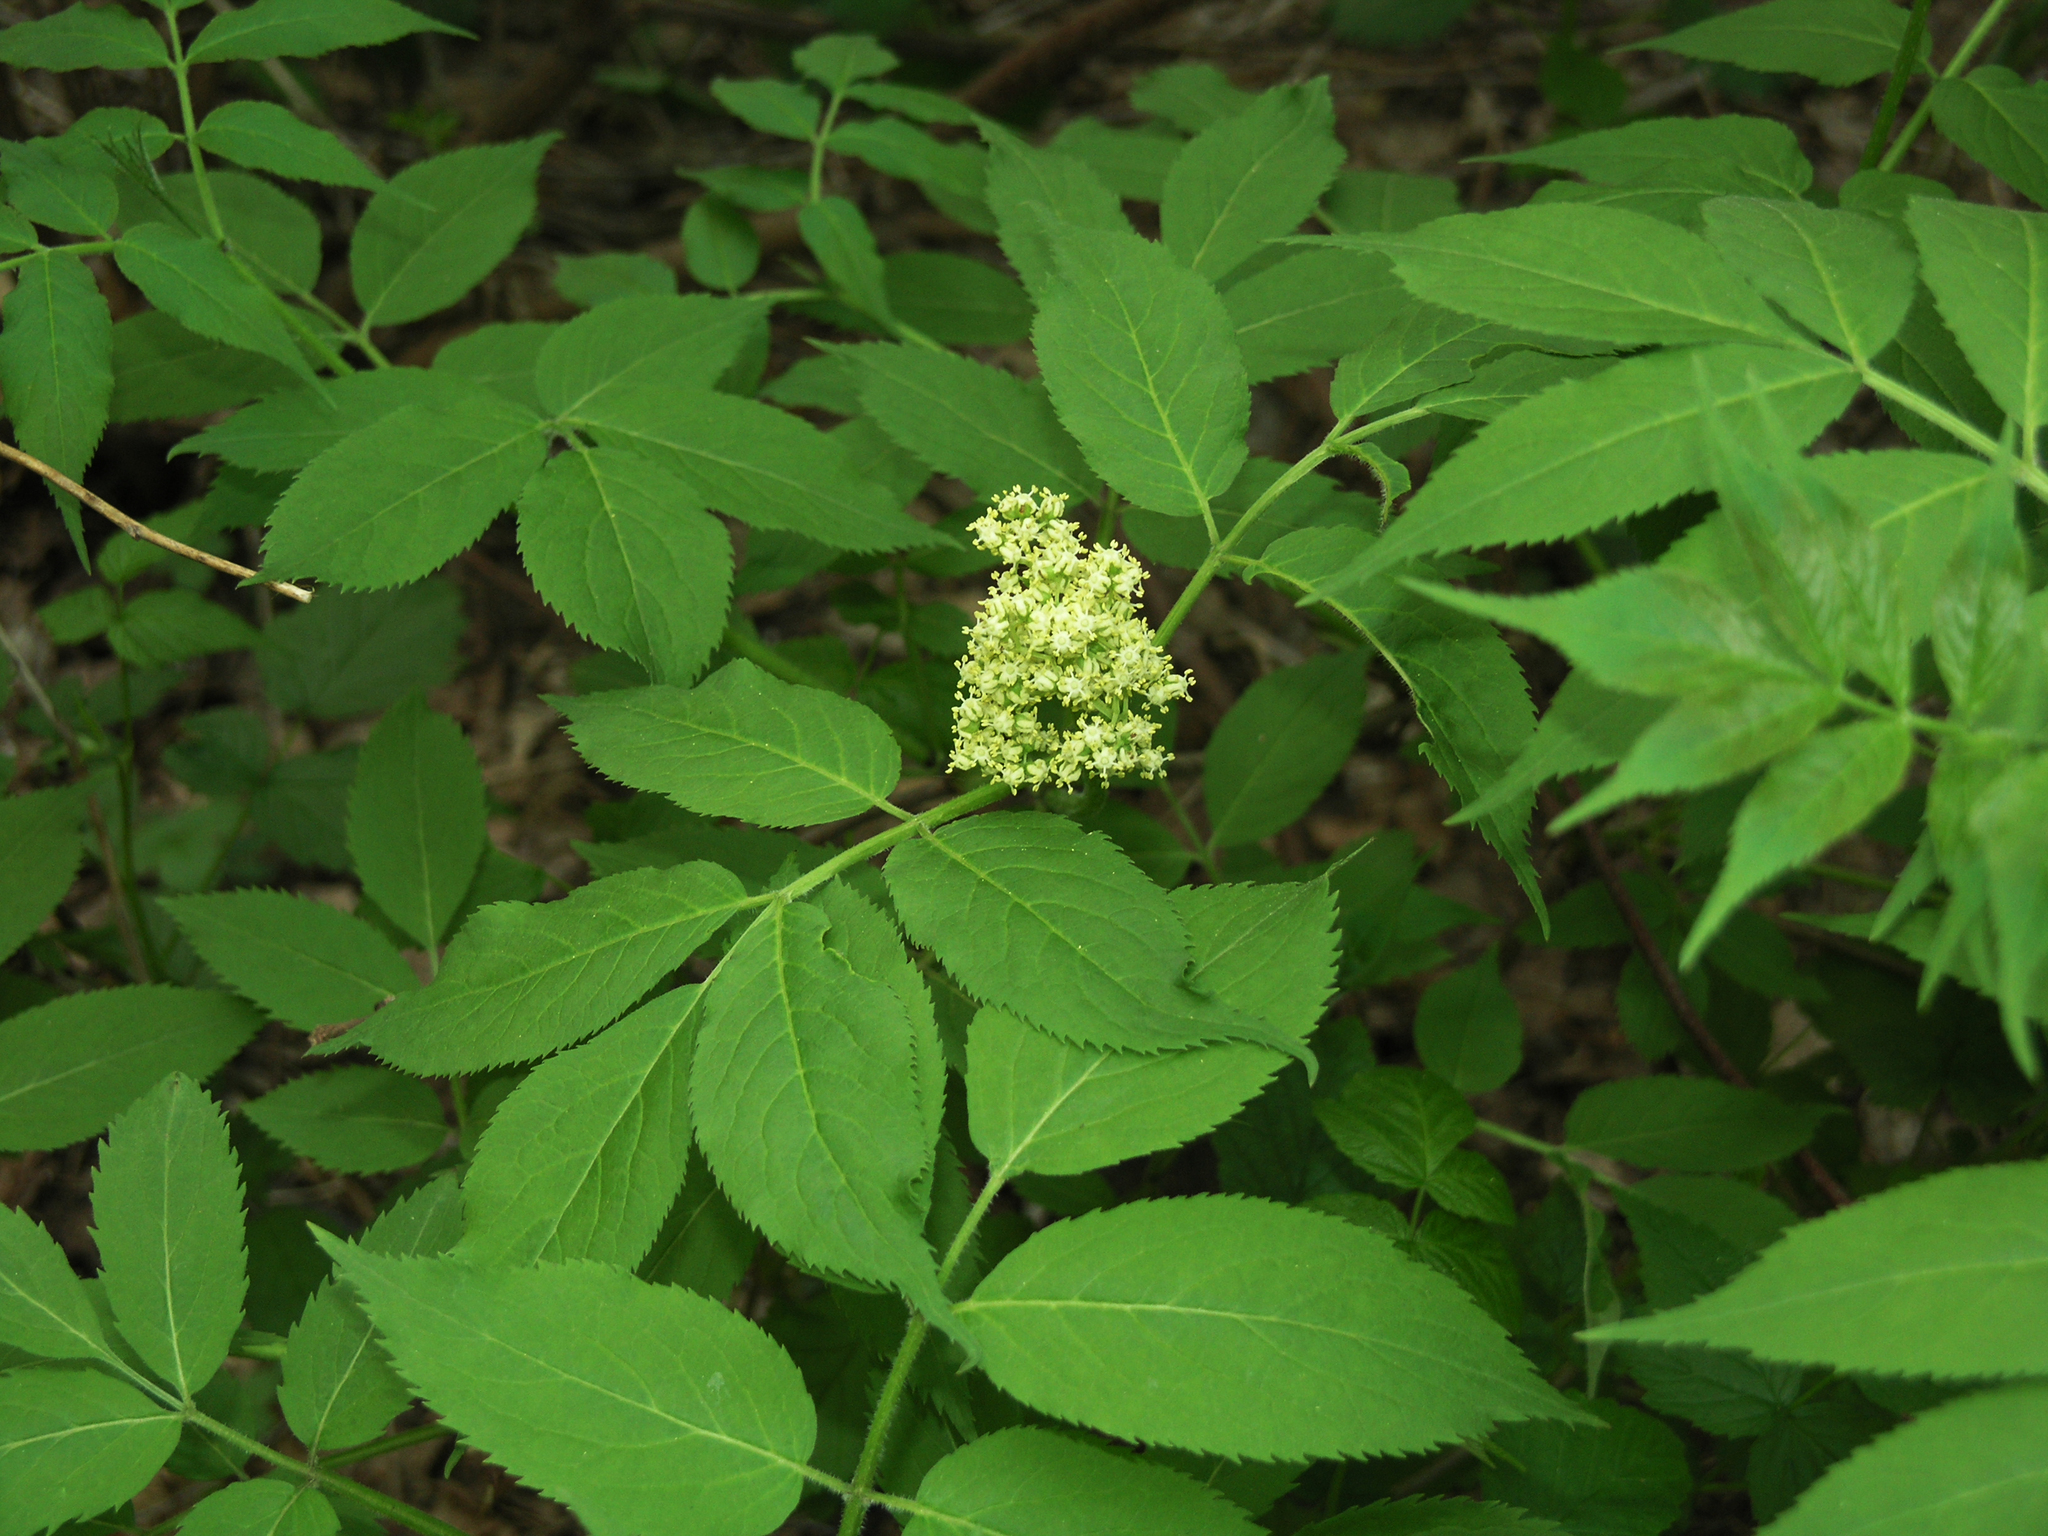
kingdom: Plantae
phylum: Tracheophyta
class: Magnoliopsida
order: Dipsacales
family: Viburnaceae
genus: Sambucus
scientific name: Sambucus sibirica
